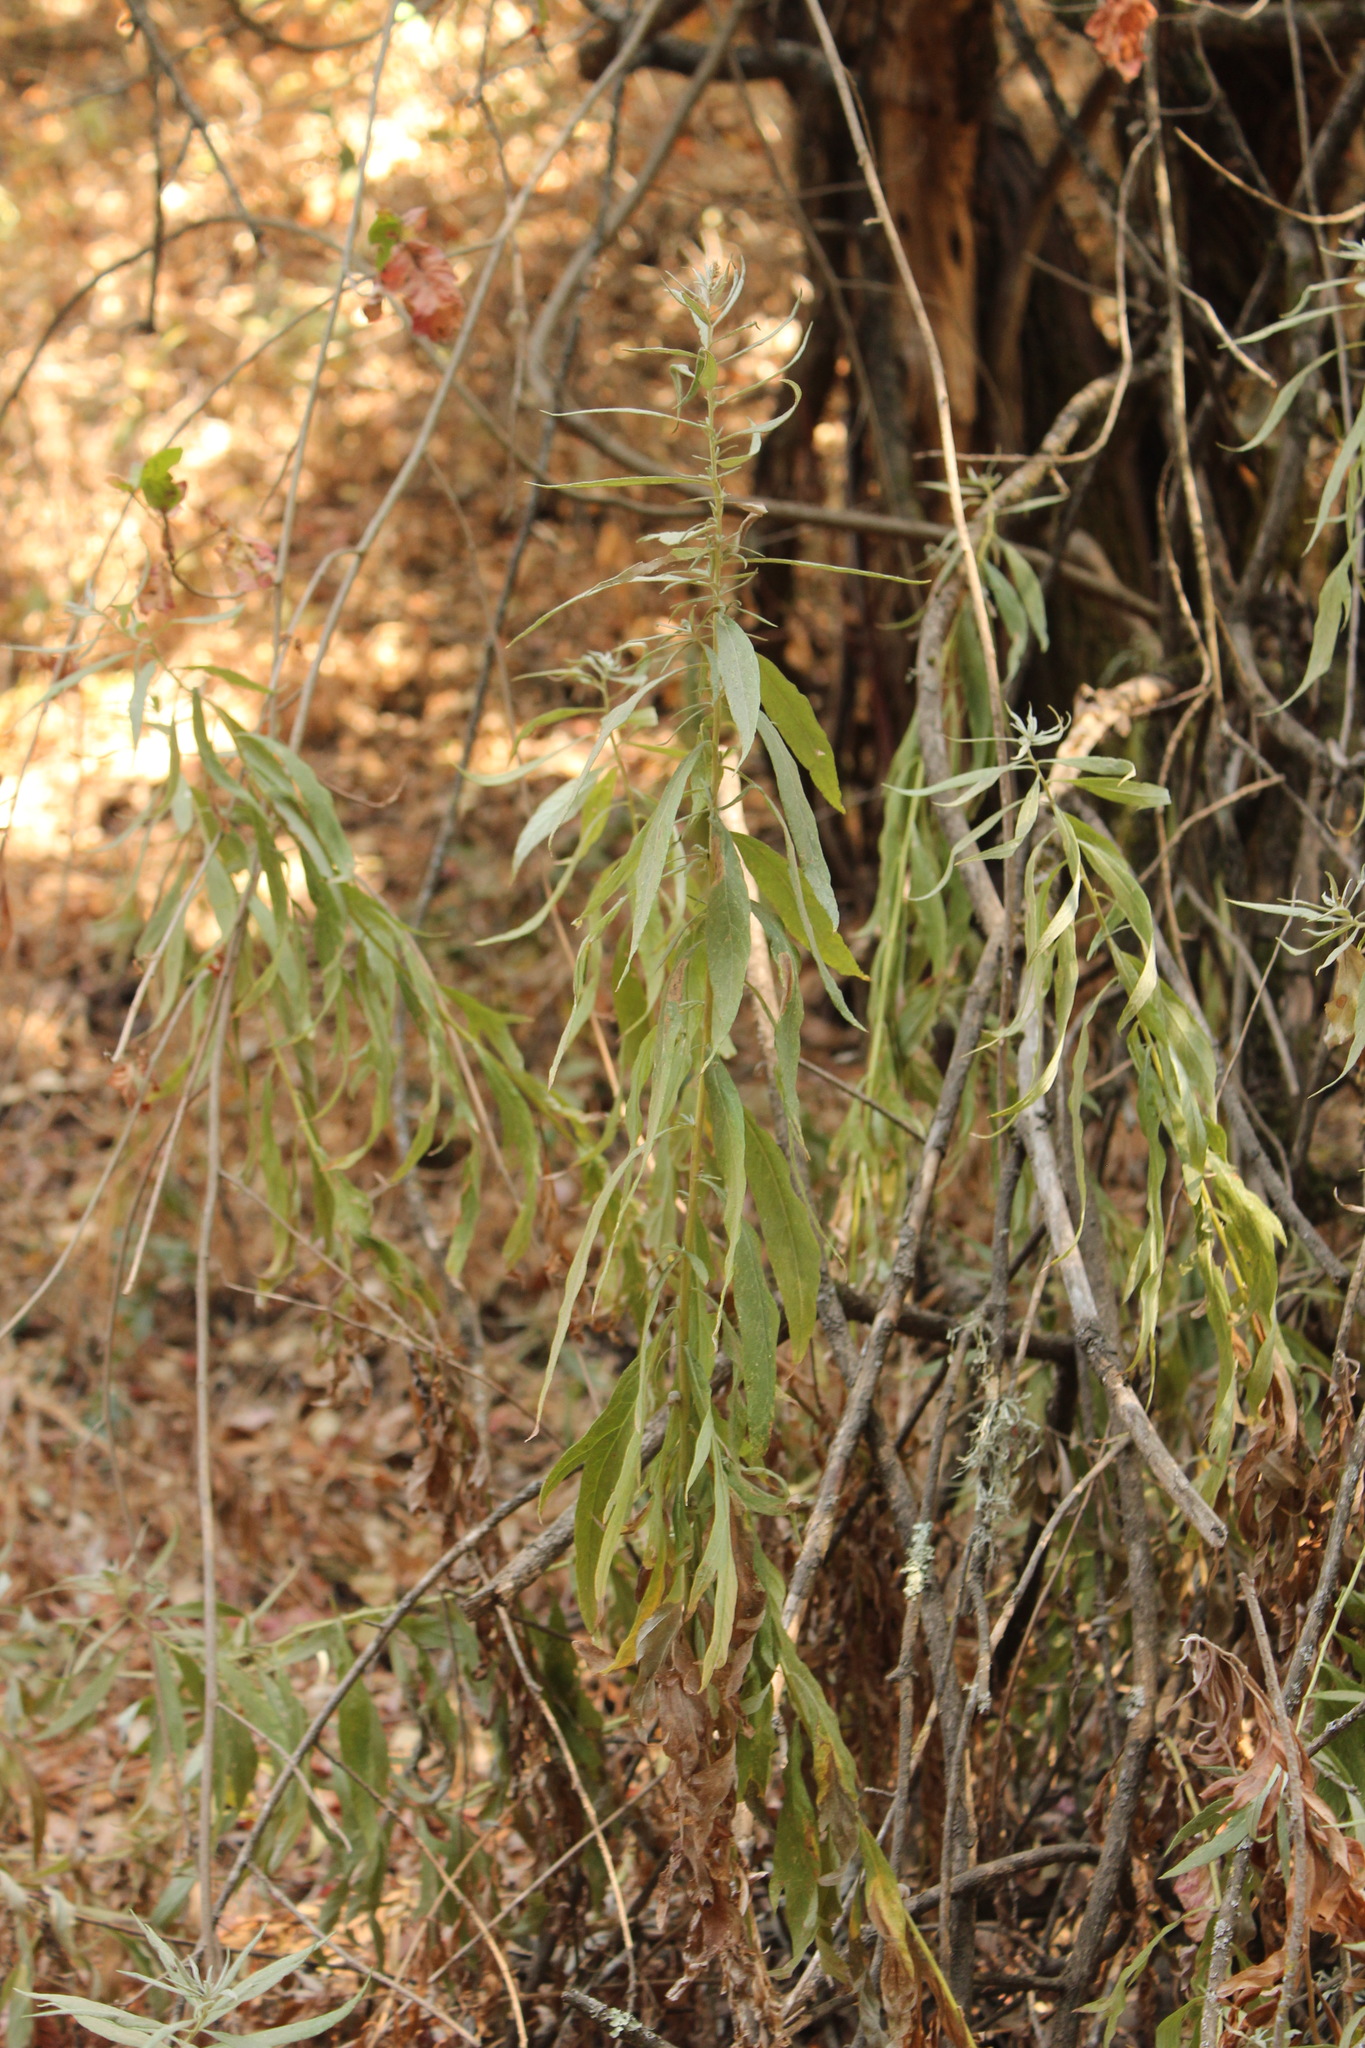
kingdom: Plantae
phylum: Tracheophyta
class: Magnoliopsida
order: Asterales
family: Asteraceae
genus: Artemisia
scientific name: Artemisia douglasiana
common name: Northwest mugwort
